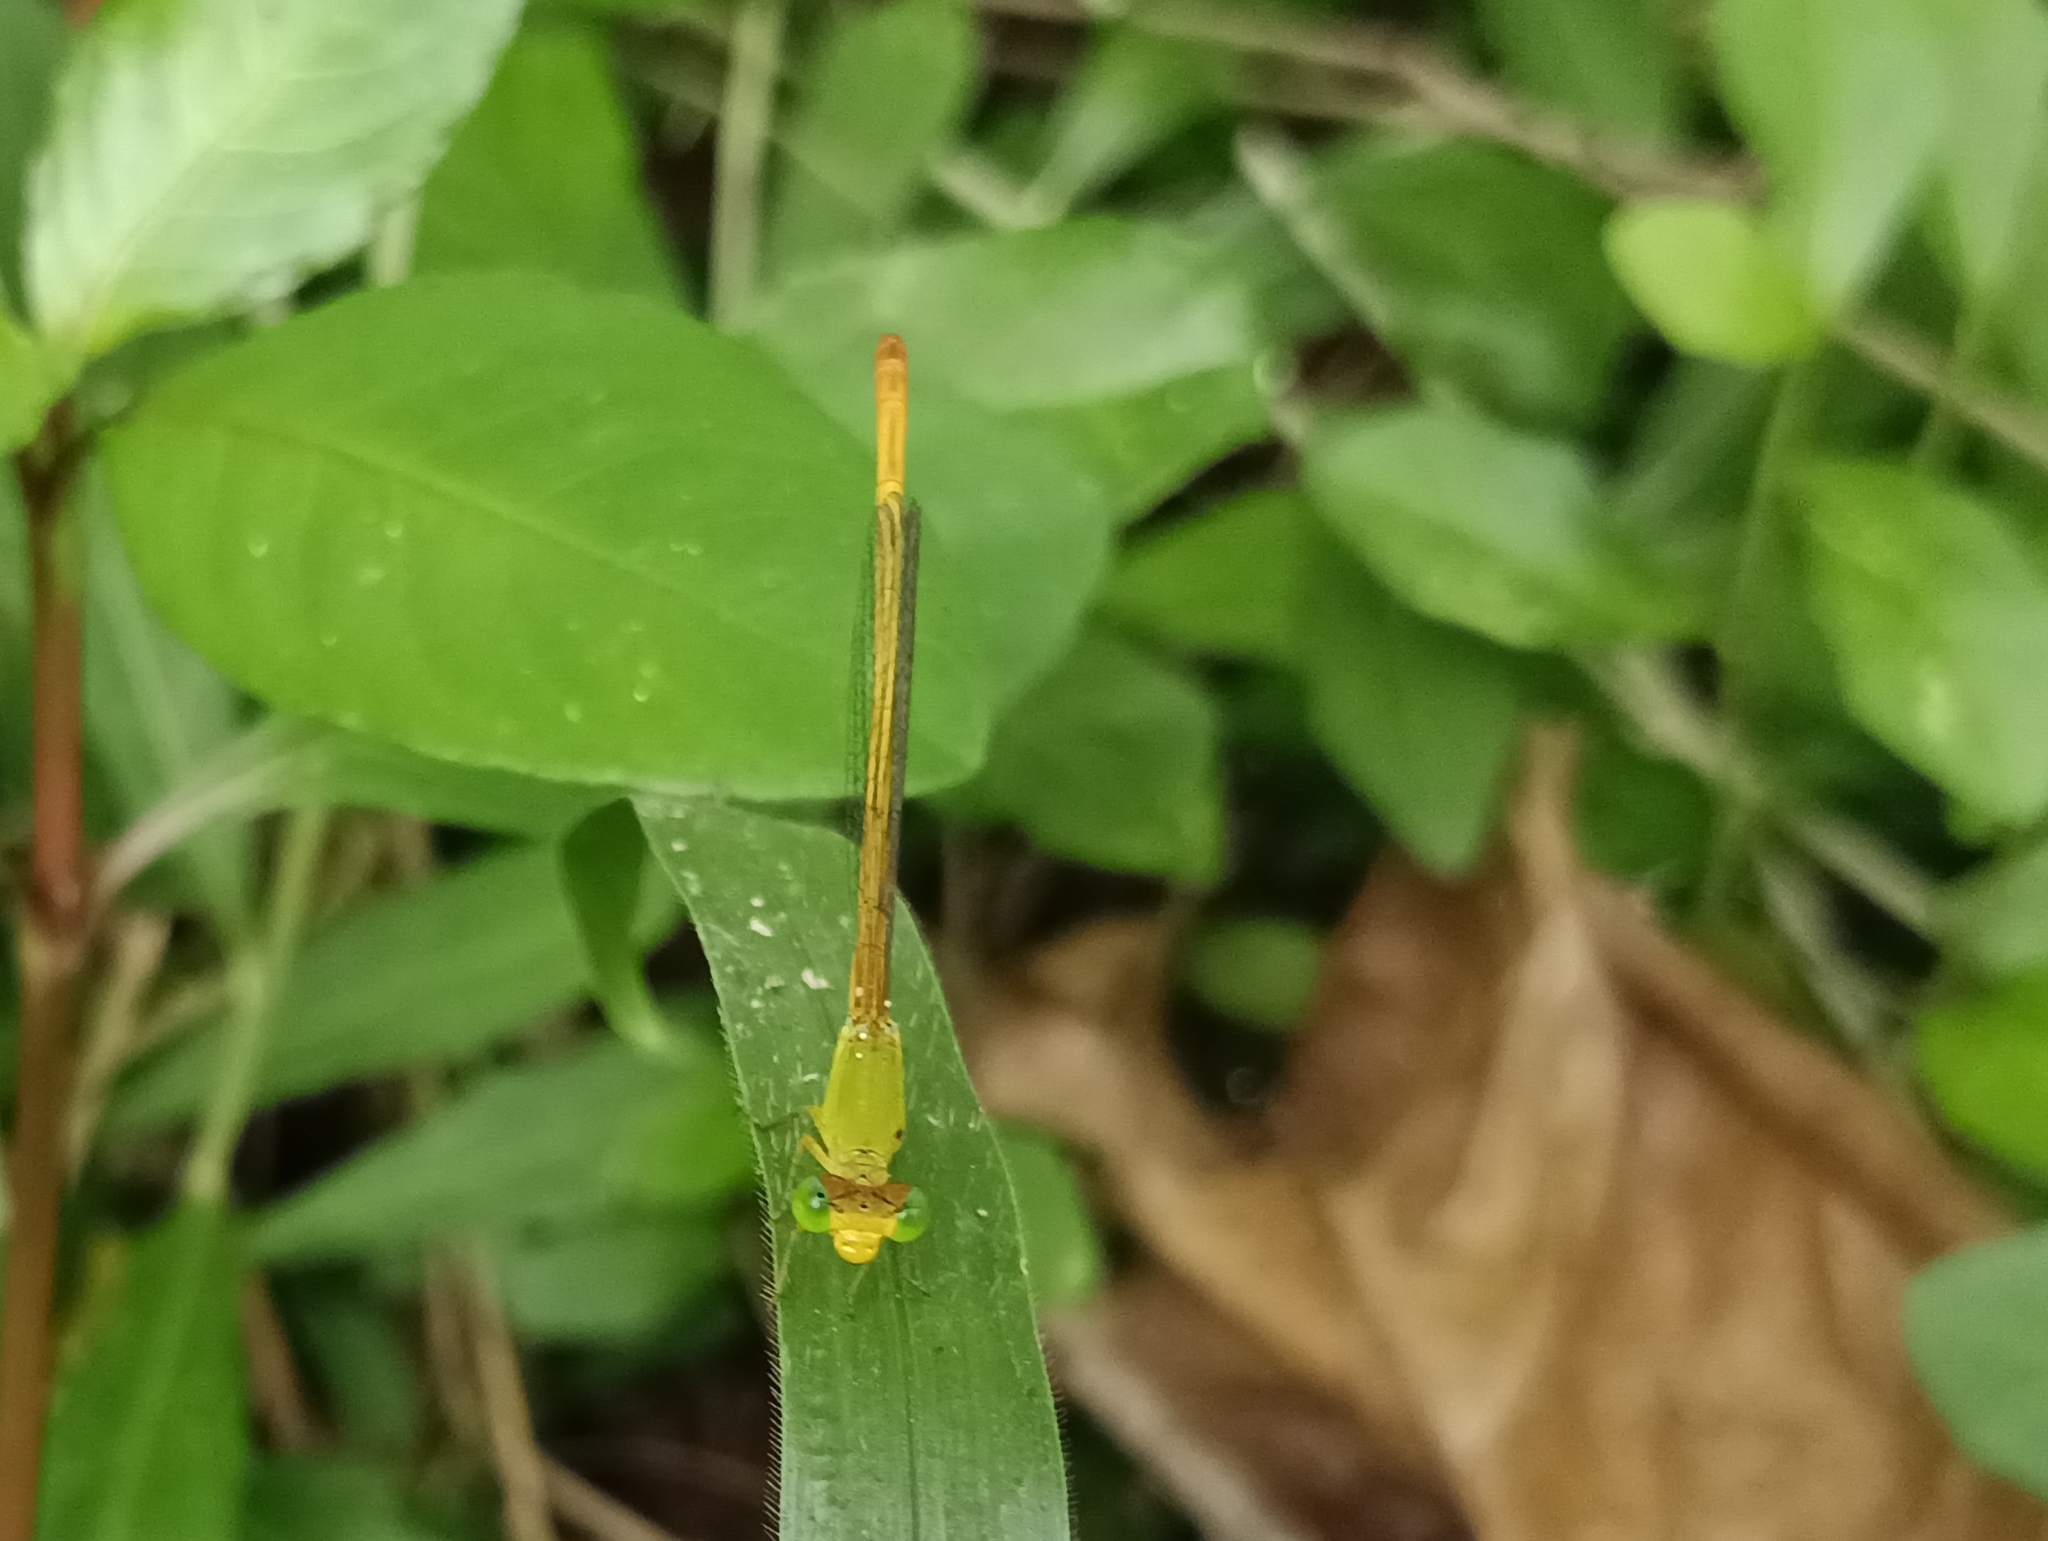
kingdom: Animalia
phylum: Arthropoda
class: Insecta
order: Odonata
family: Coenagrionidae
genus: Ceriagrion
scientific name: Ceriagrion coromandelianum
